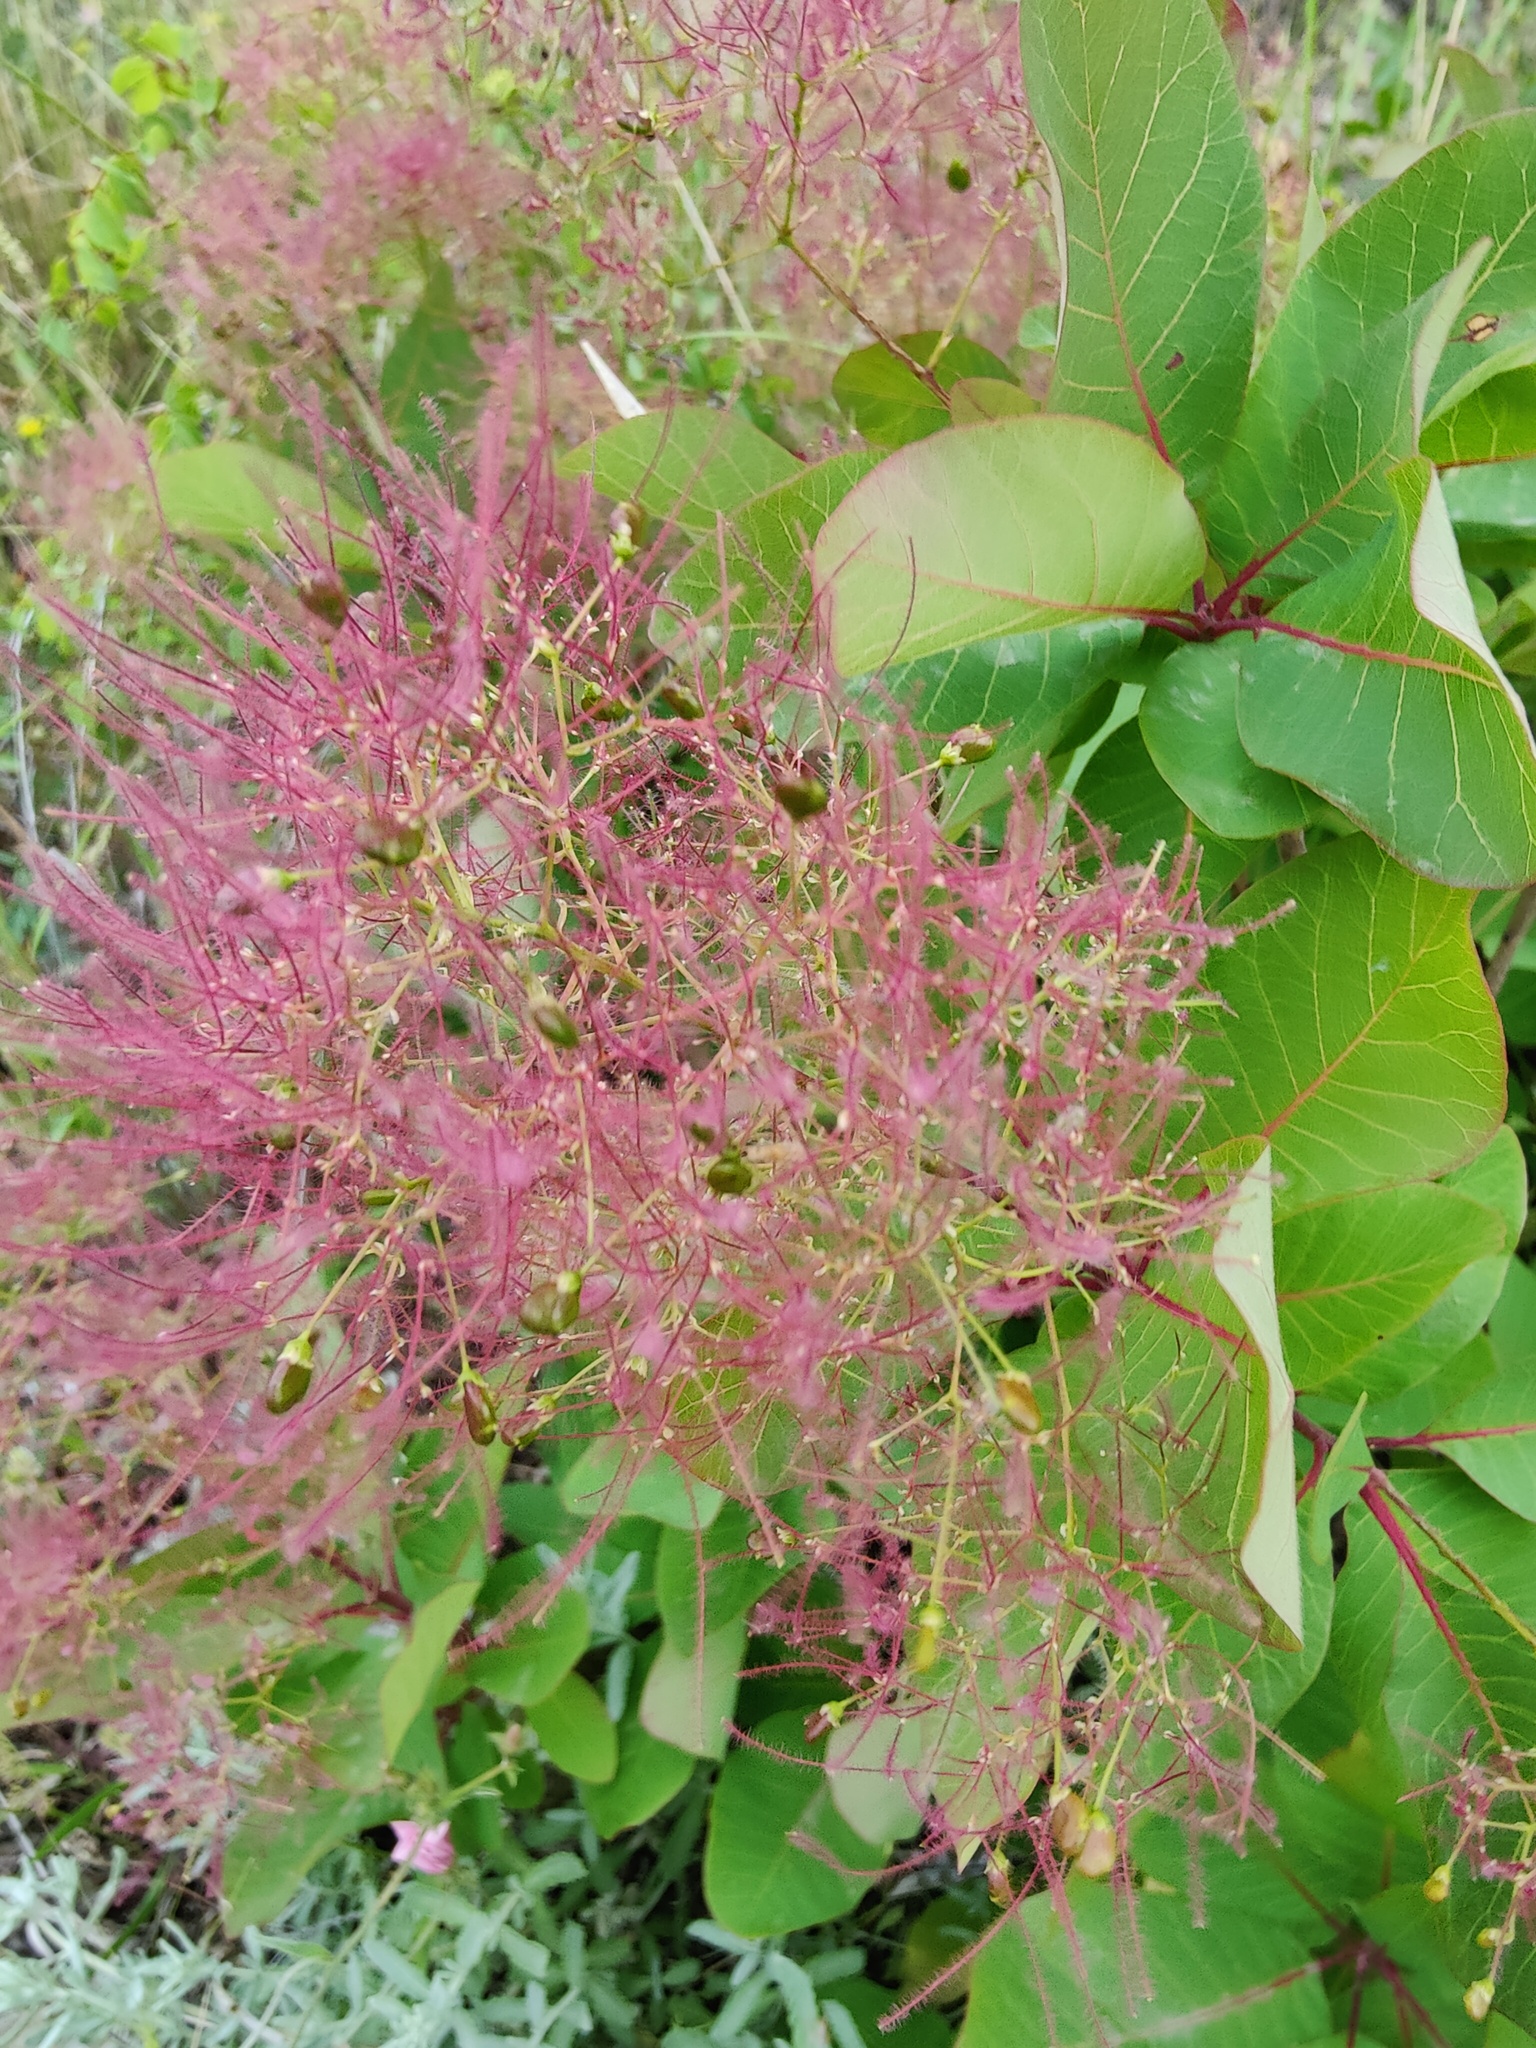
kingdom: Plantae
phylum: Tracheophyta
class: Magnoliopsida
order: Sapindales
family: Anacardiaceae
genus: Cotinus
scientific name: Cotinus coggygria
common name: Smoke-tree
